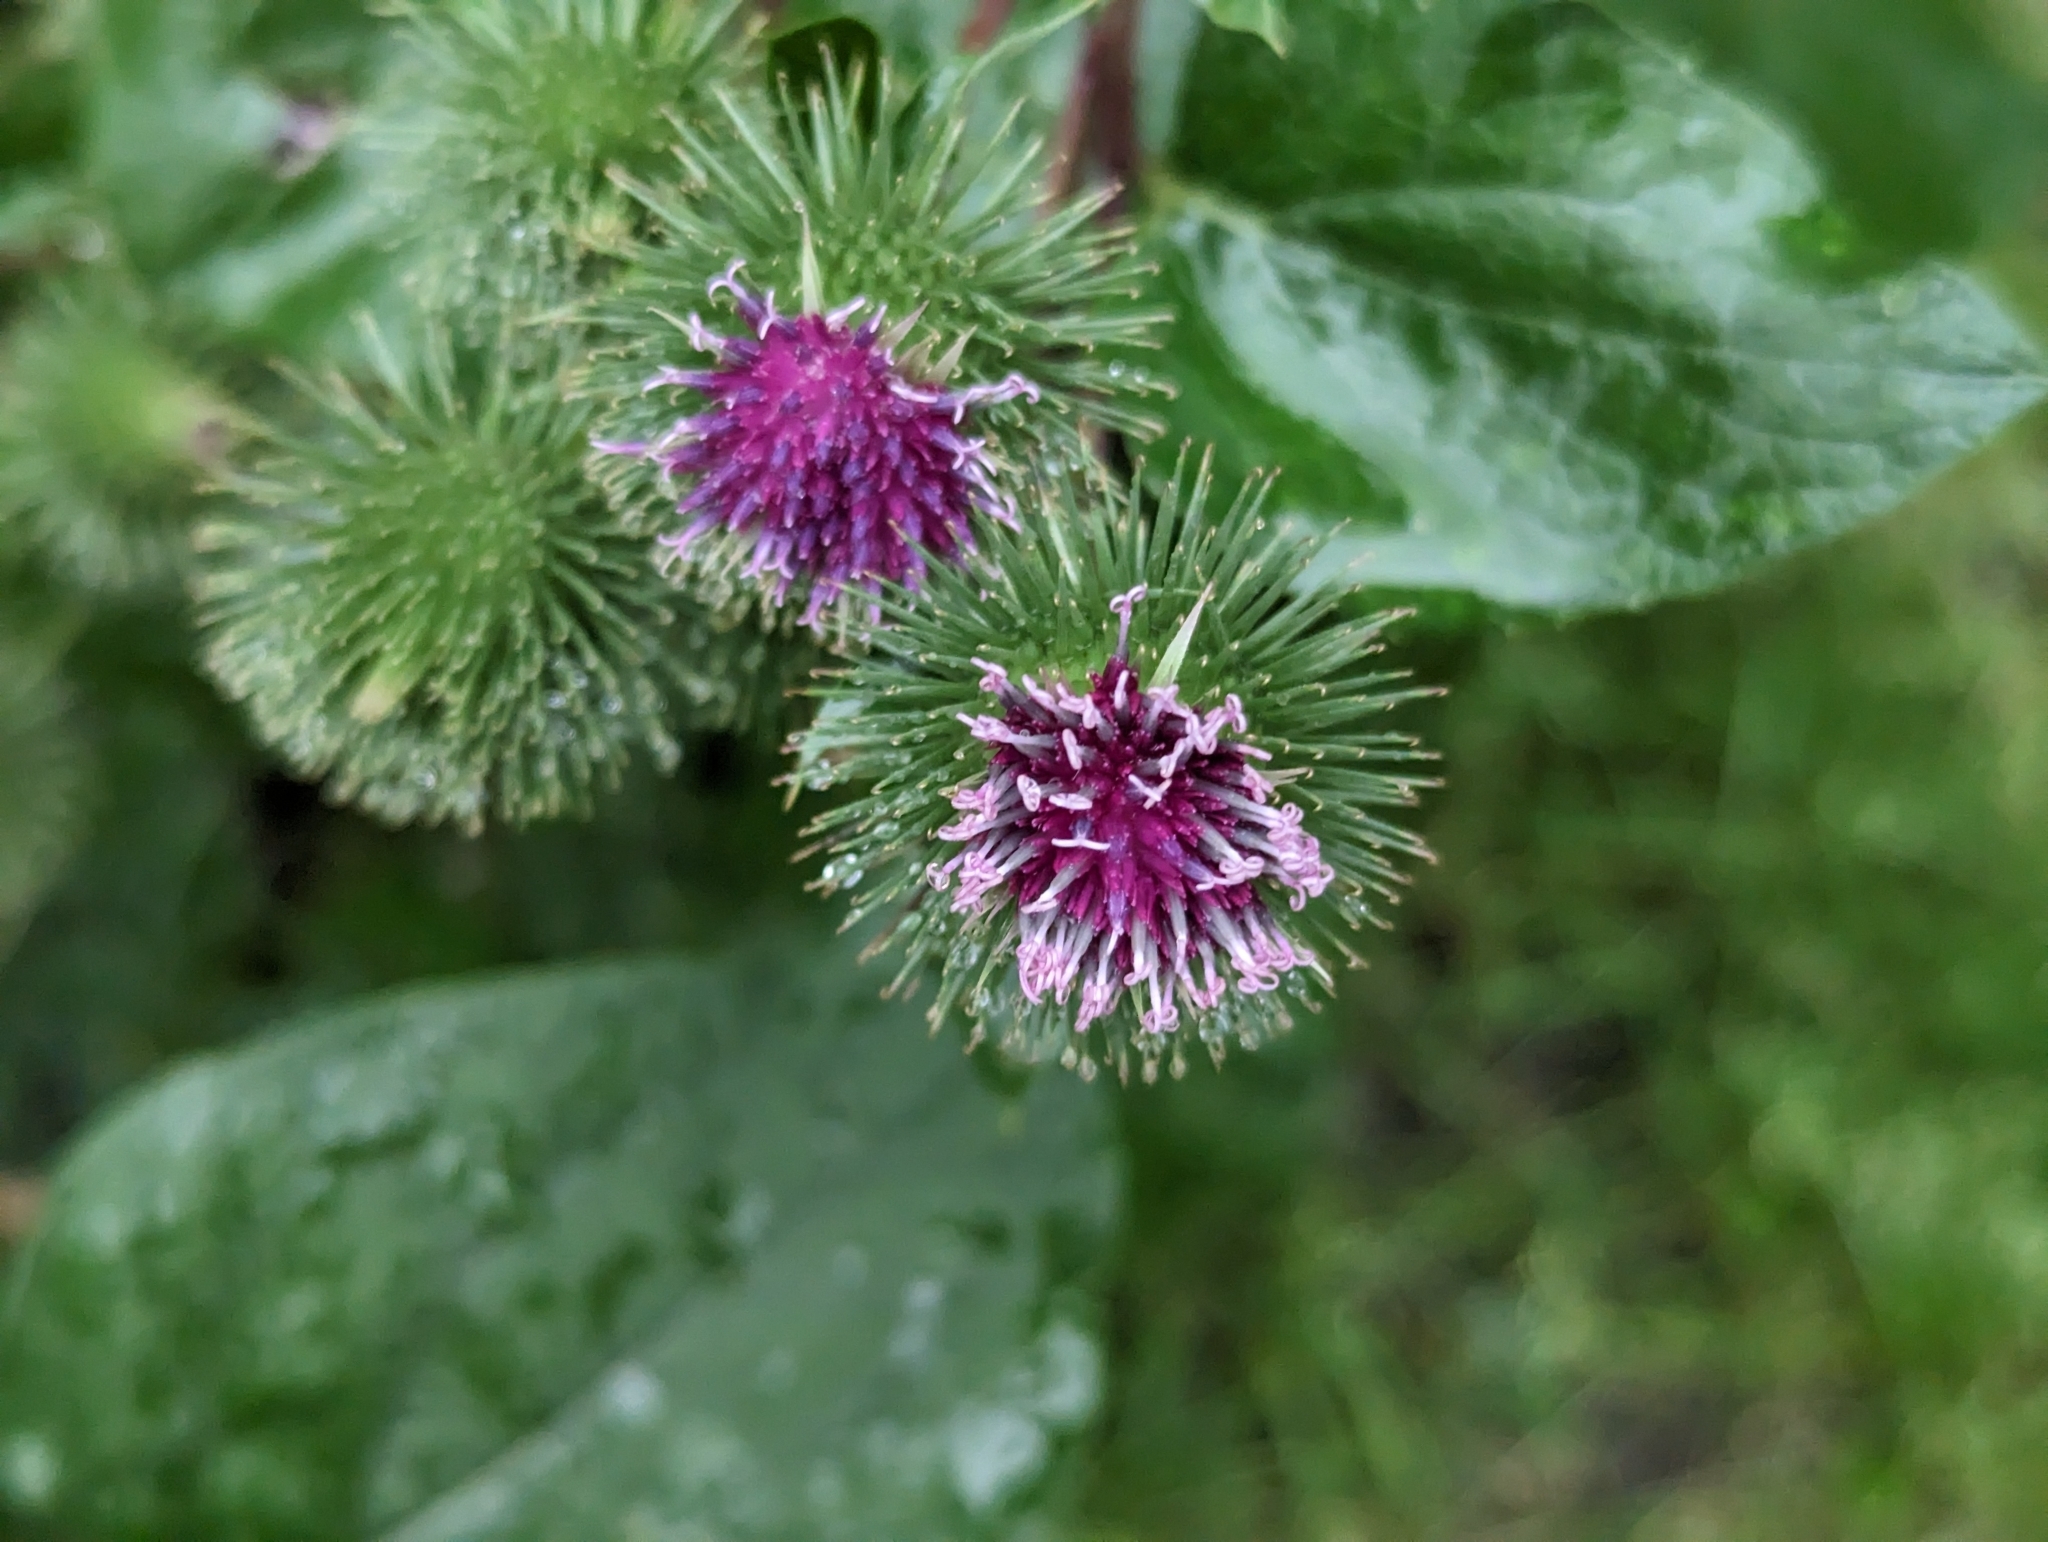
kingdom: Plantae
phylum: Tracheophyta
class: Magnoliopsida
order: Asterales
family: Asteraceae
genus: Arctium
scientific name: Arctium lappa
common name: Greater burdock
